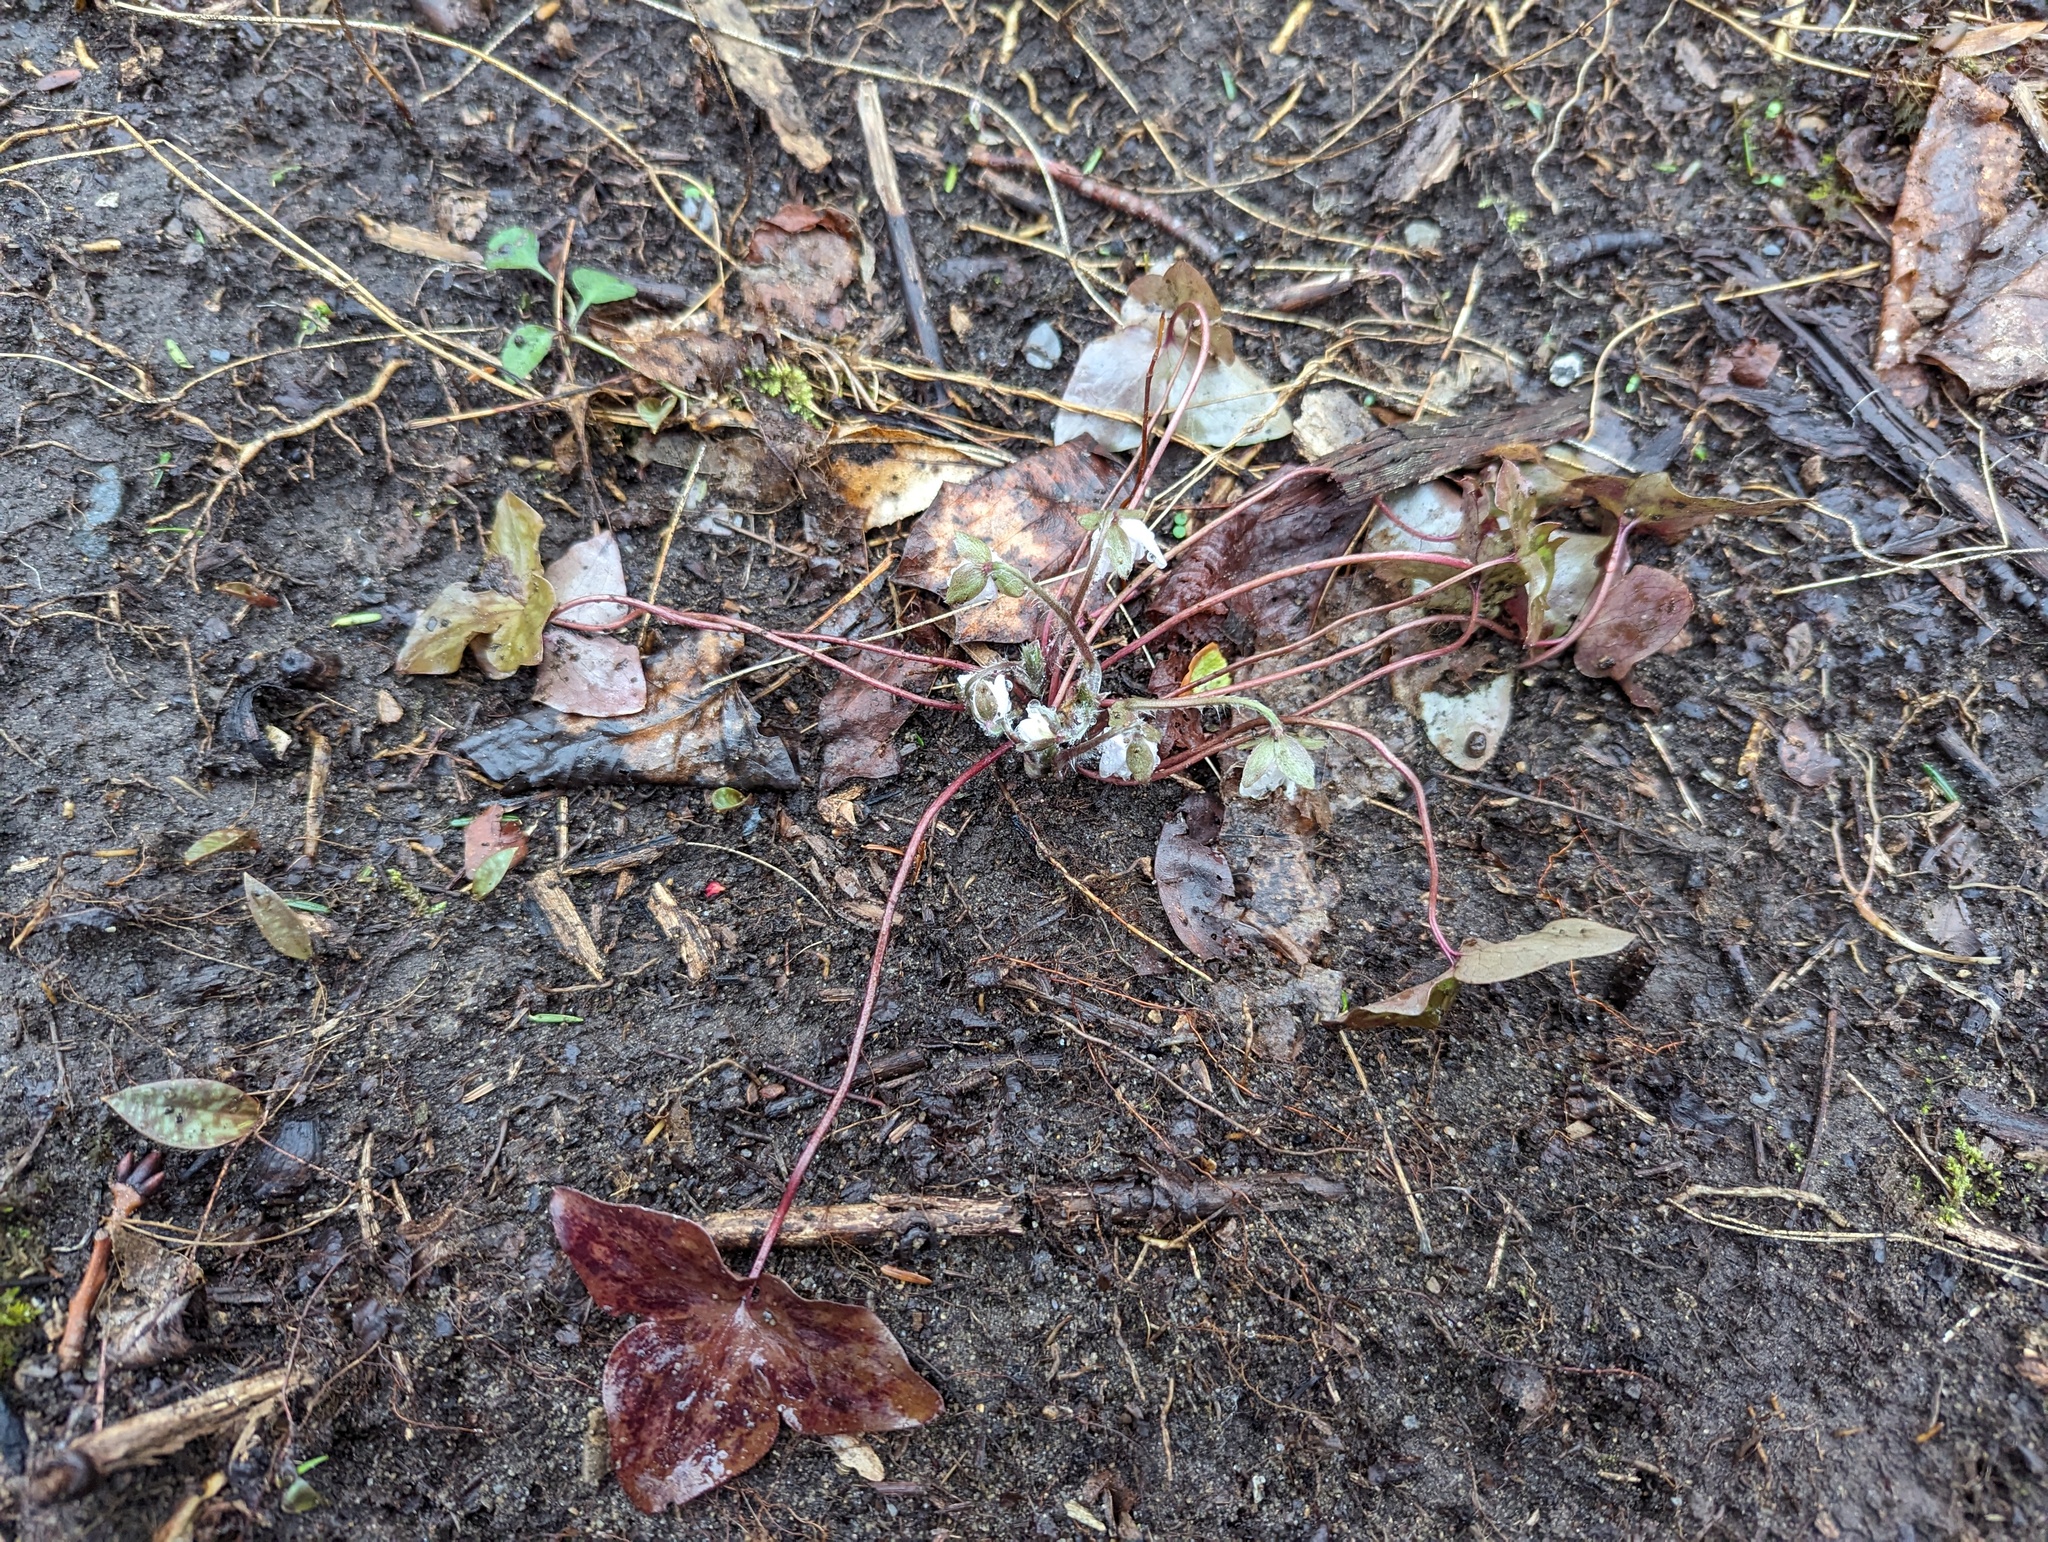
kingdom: Plantae
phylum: Tracheophyta
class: Magnoliopsida
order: Ranunculales
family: Ranunculaceae
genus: Hepatica
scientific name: Hepatica acutiloba
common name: Sharp-lobed hepatica
